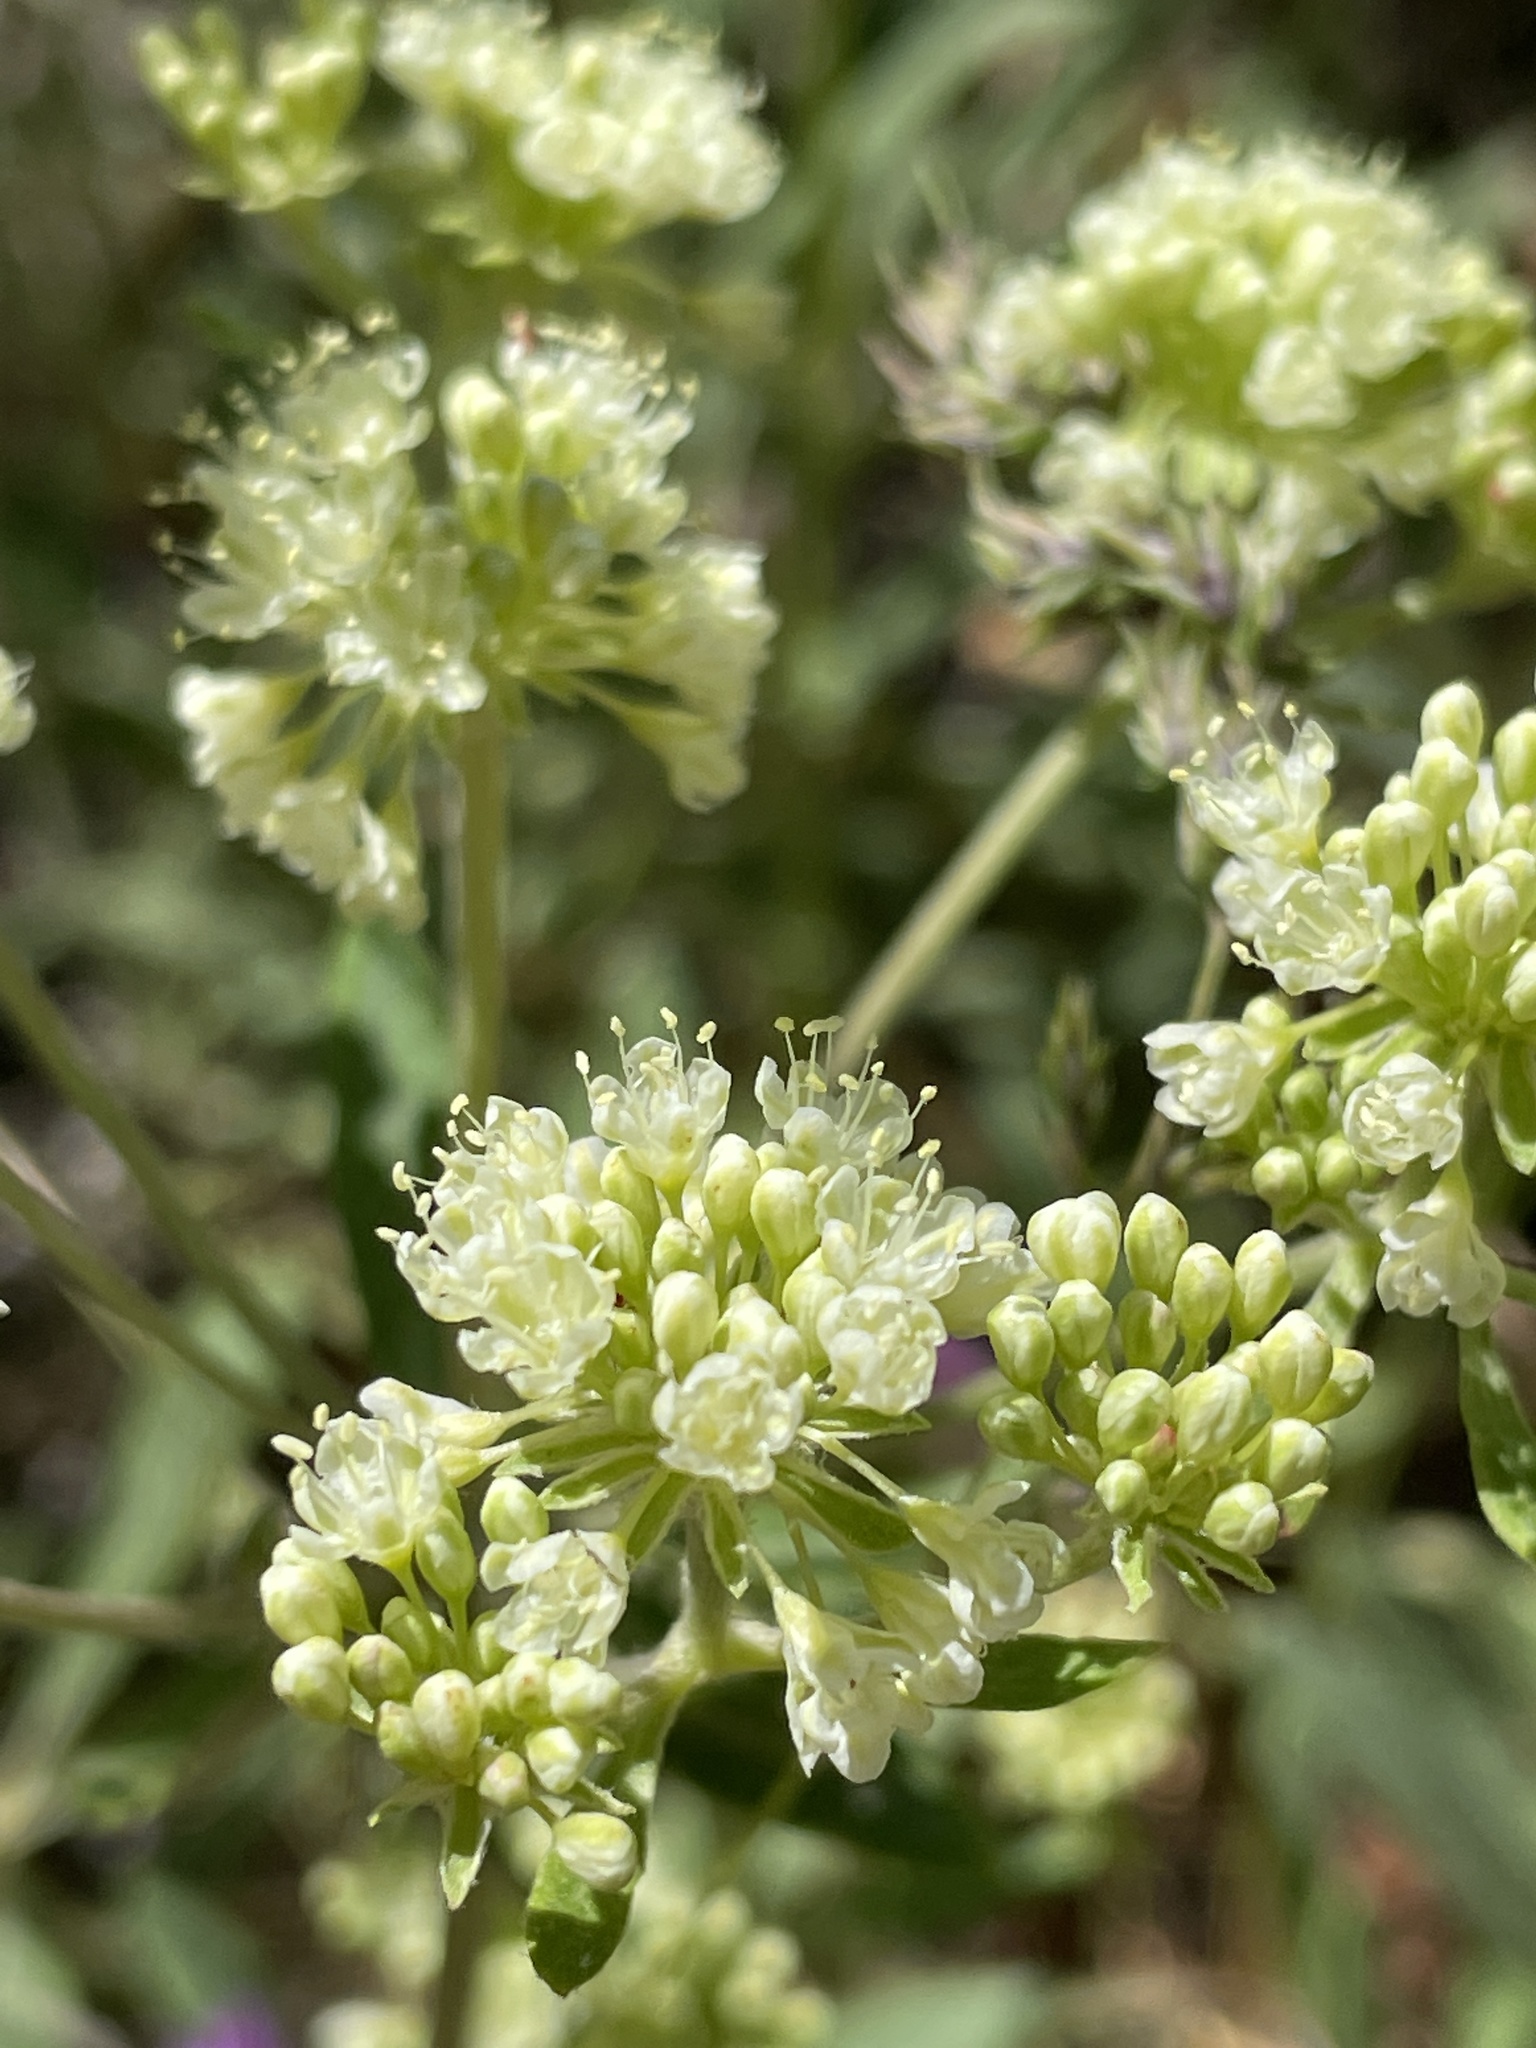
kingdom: Plantae
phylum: Tracheophyta
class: Magnoliopsida
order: Caryophyllales
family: Polygonaceae
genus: Eriogonum
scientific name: Eriogonum heracleoides
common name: Wyeth's buckwheat
